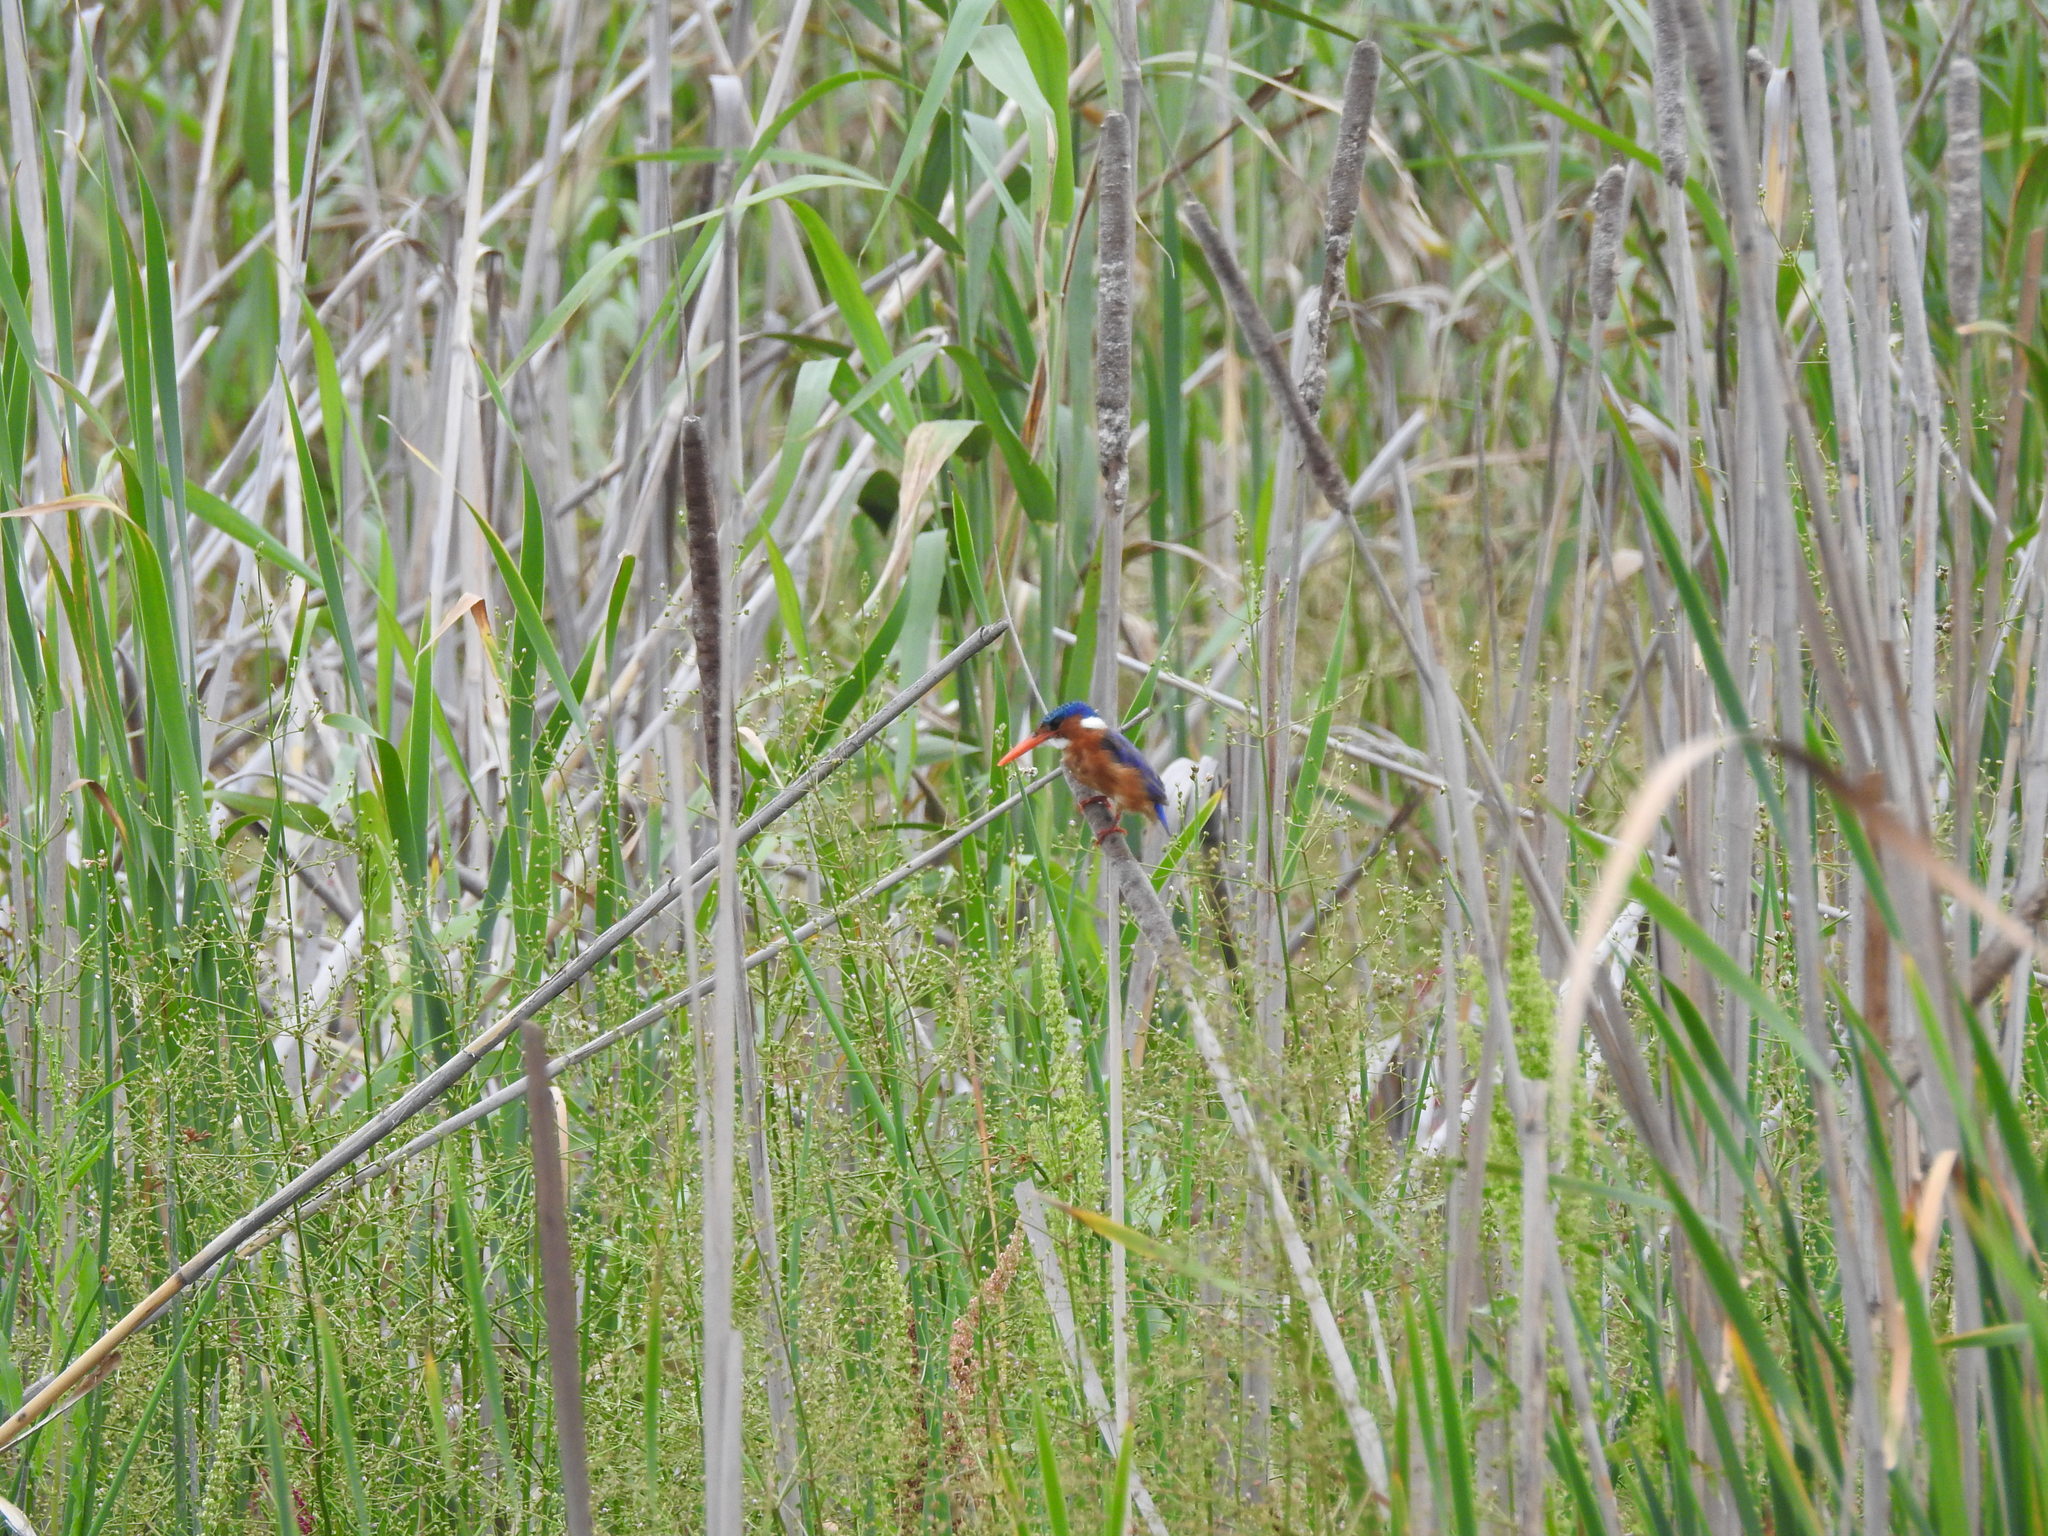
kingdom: Animalia
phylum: Chordata
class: Aves
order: Coraciiformes
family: Alcedinidae
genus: Corythornis
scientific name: Corythornis cristatus
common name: Malachite kingfisher
